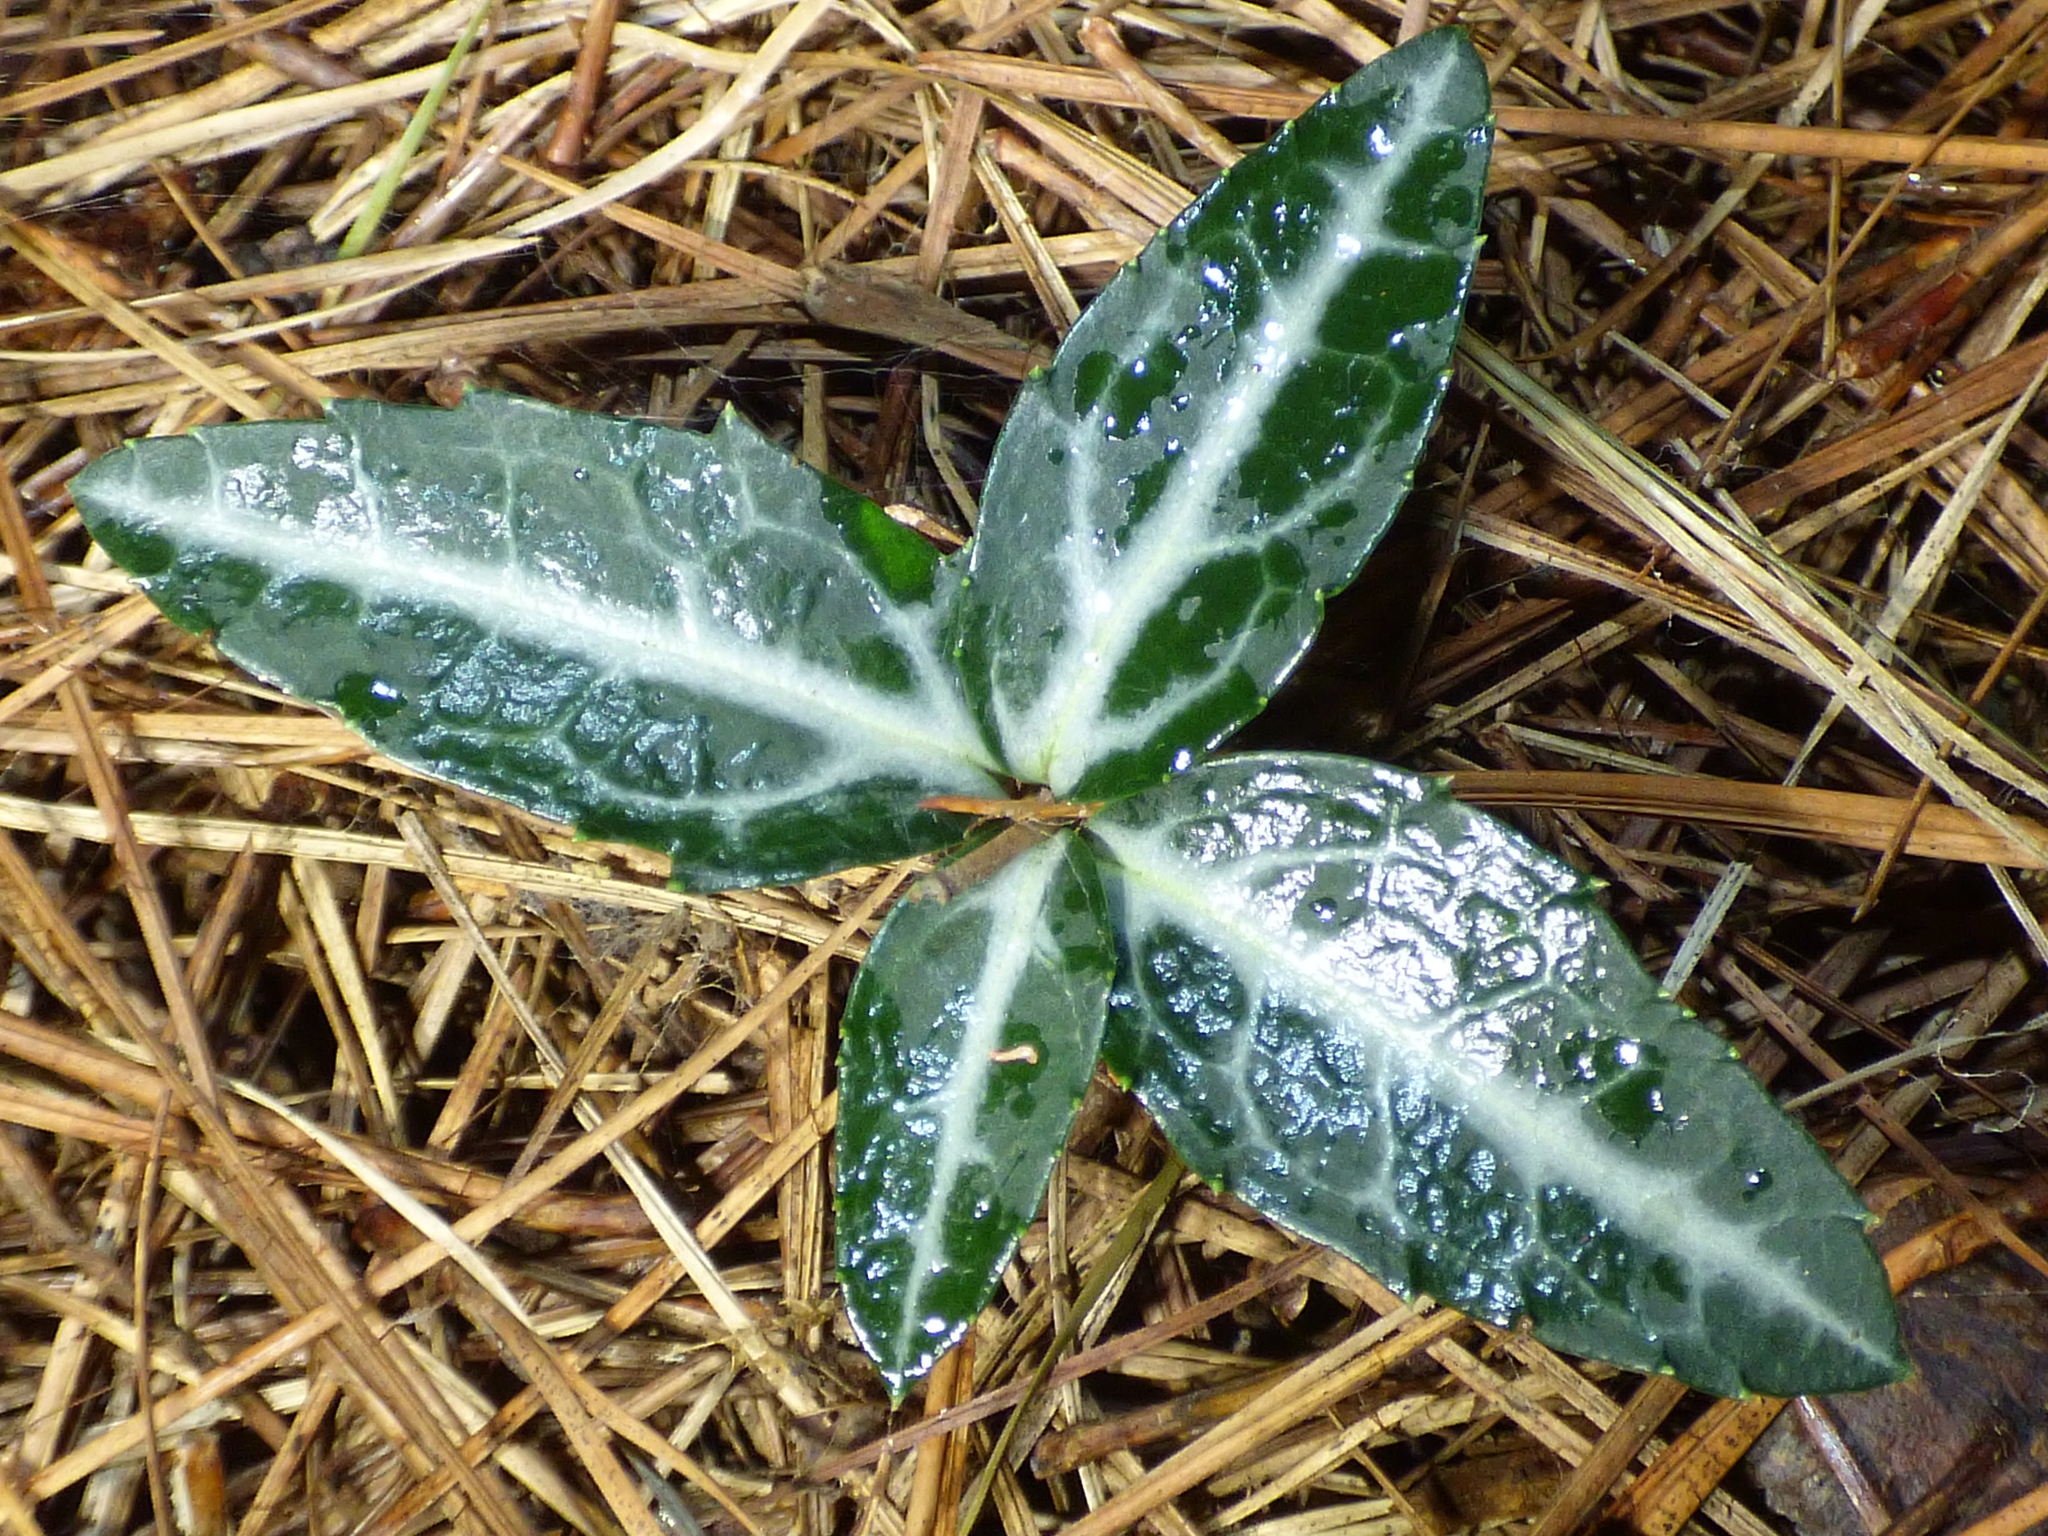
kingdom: Plantae
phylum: Tracheophyta
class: Magnoliopsida
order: Ericales
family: Ericaceae
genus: Chimaphila
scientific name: Chimaphila maculata
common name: Spotted pipsissewa
